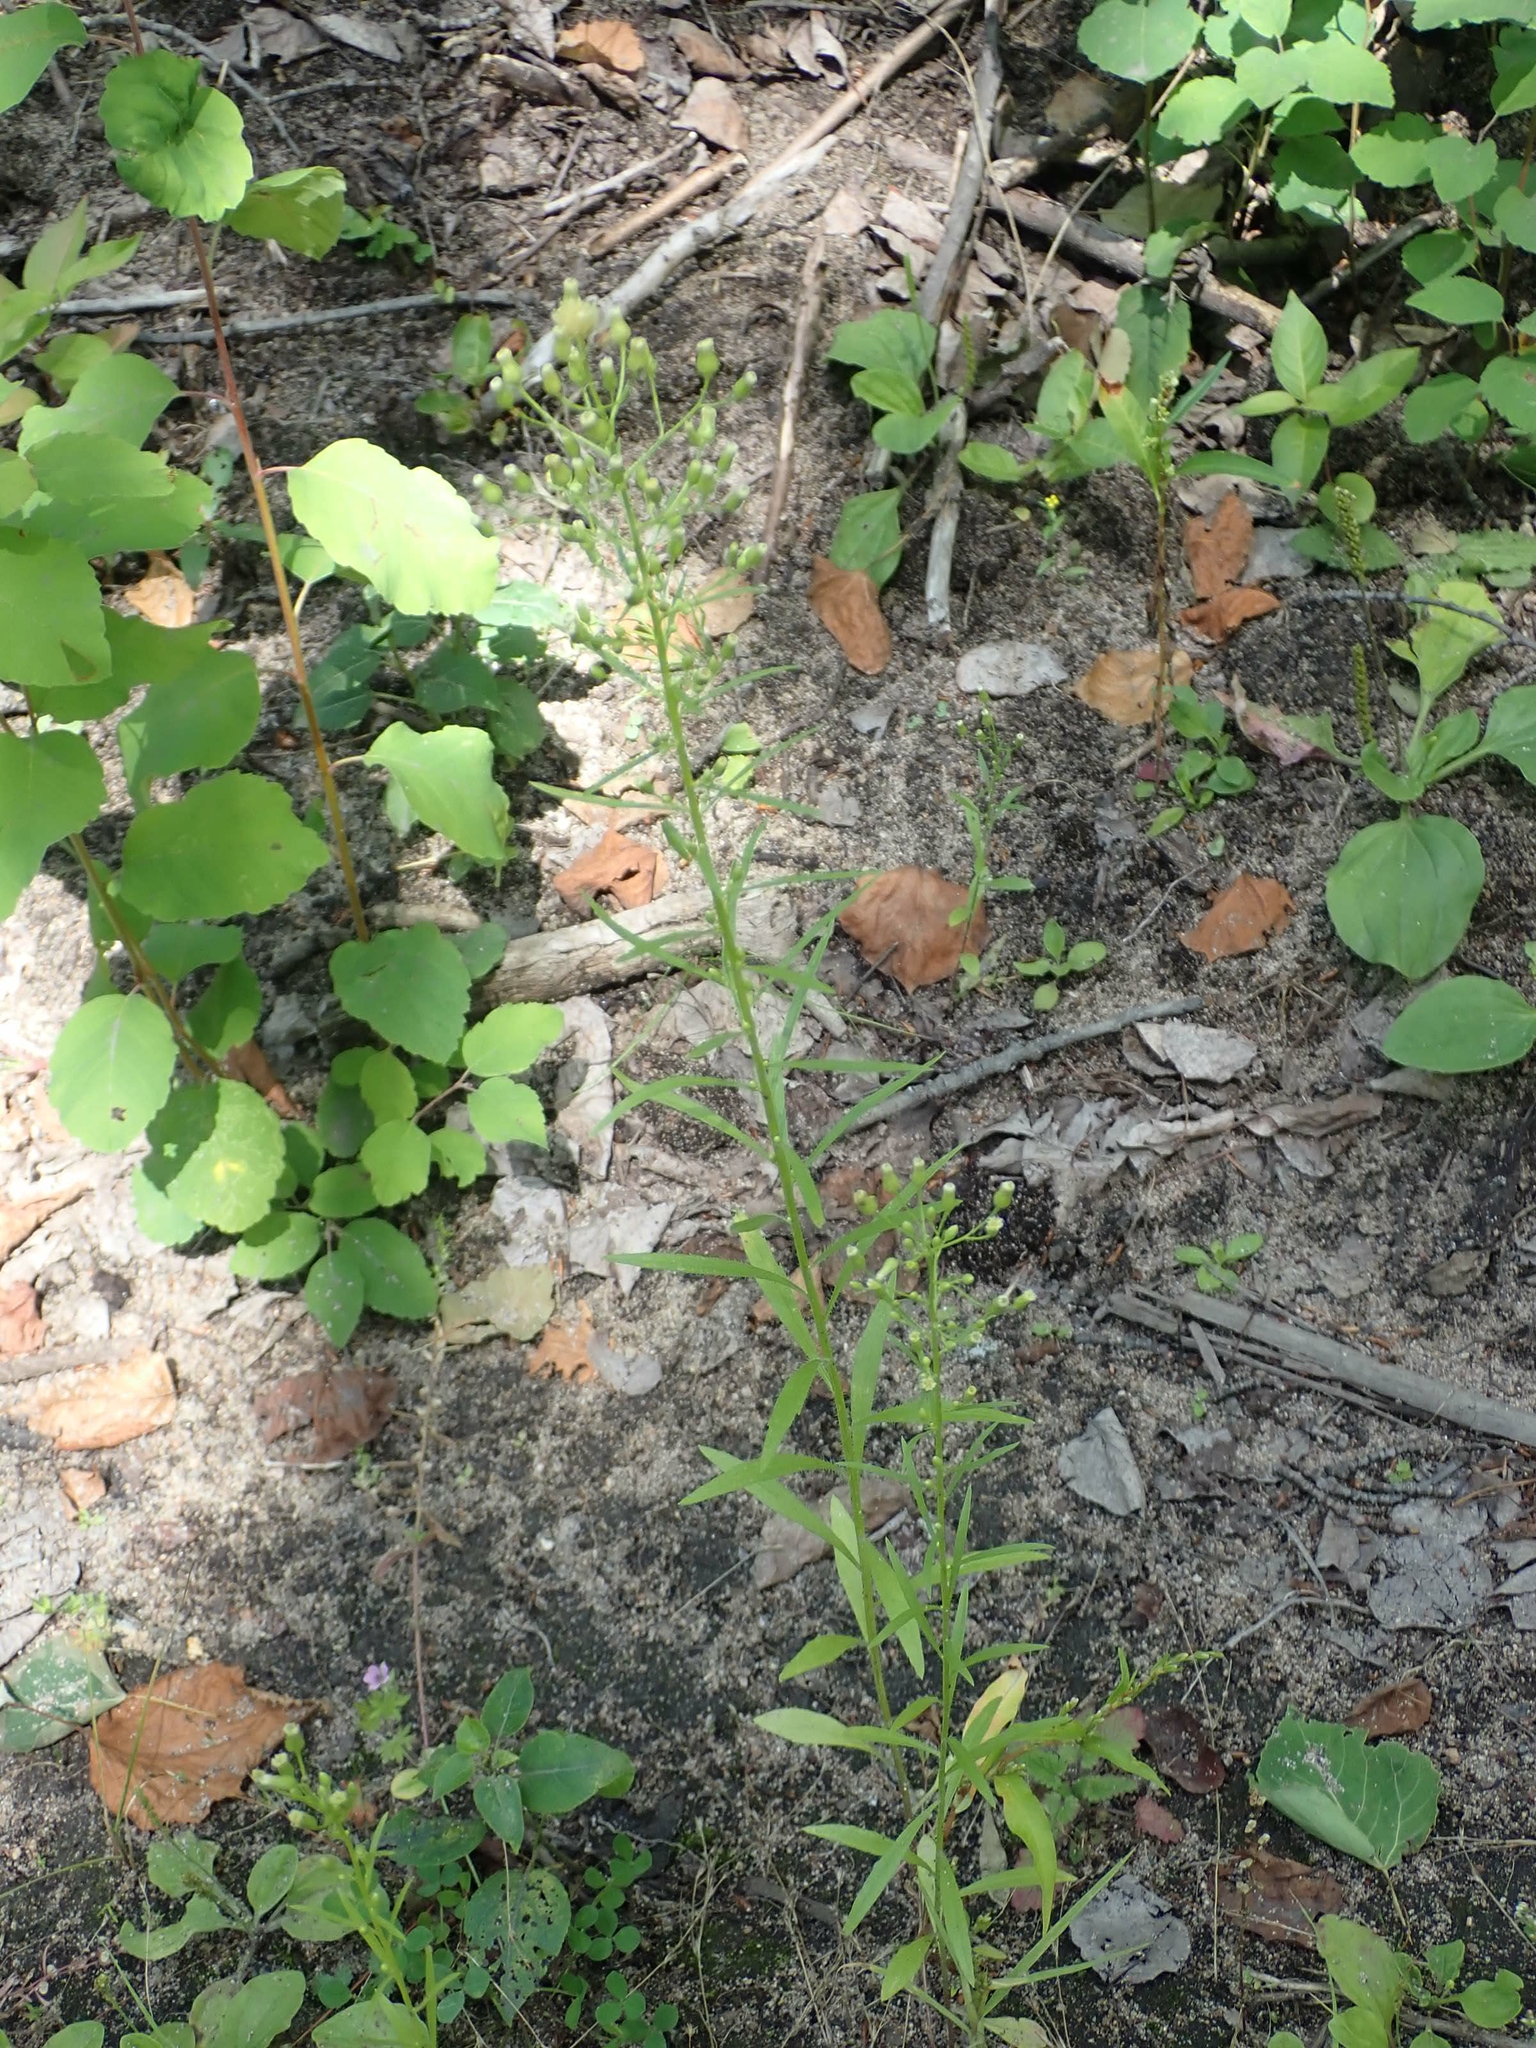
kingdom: Plantae
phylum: Tracheophyta
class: Magnoliopsida
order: Asterales
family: Asteraceae
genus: Erigeron
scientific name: Erigeron canadensis
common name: Canadian fleabane
